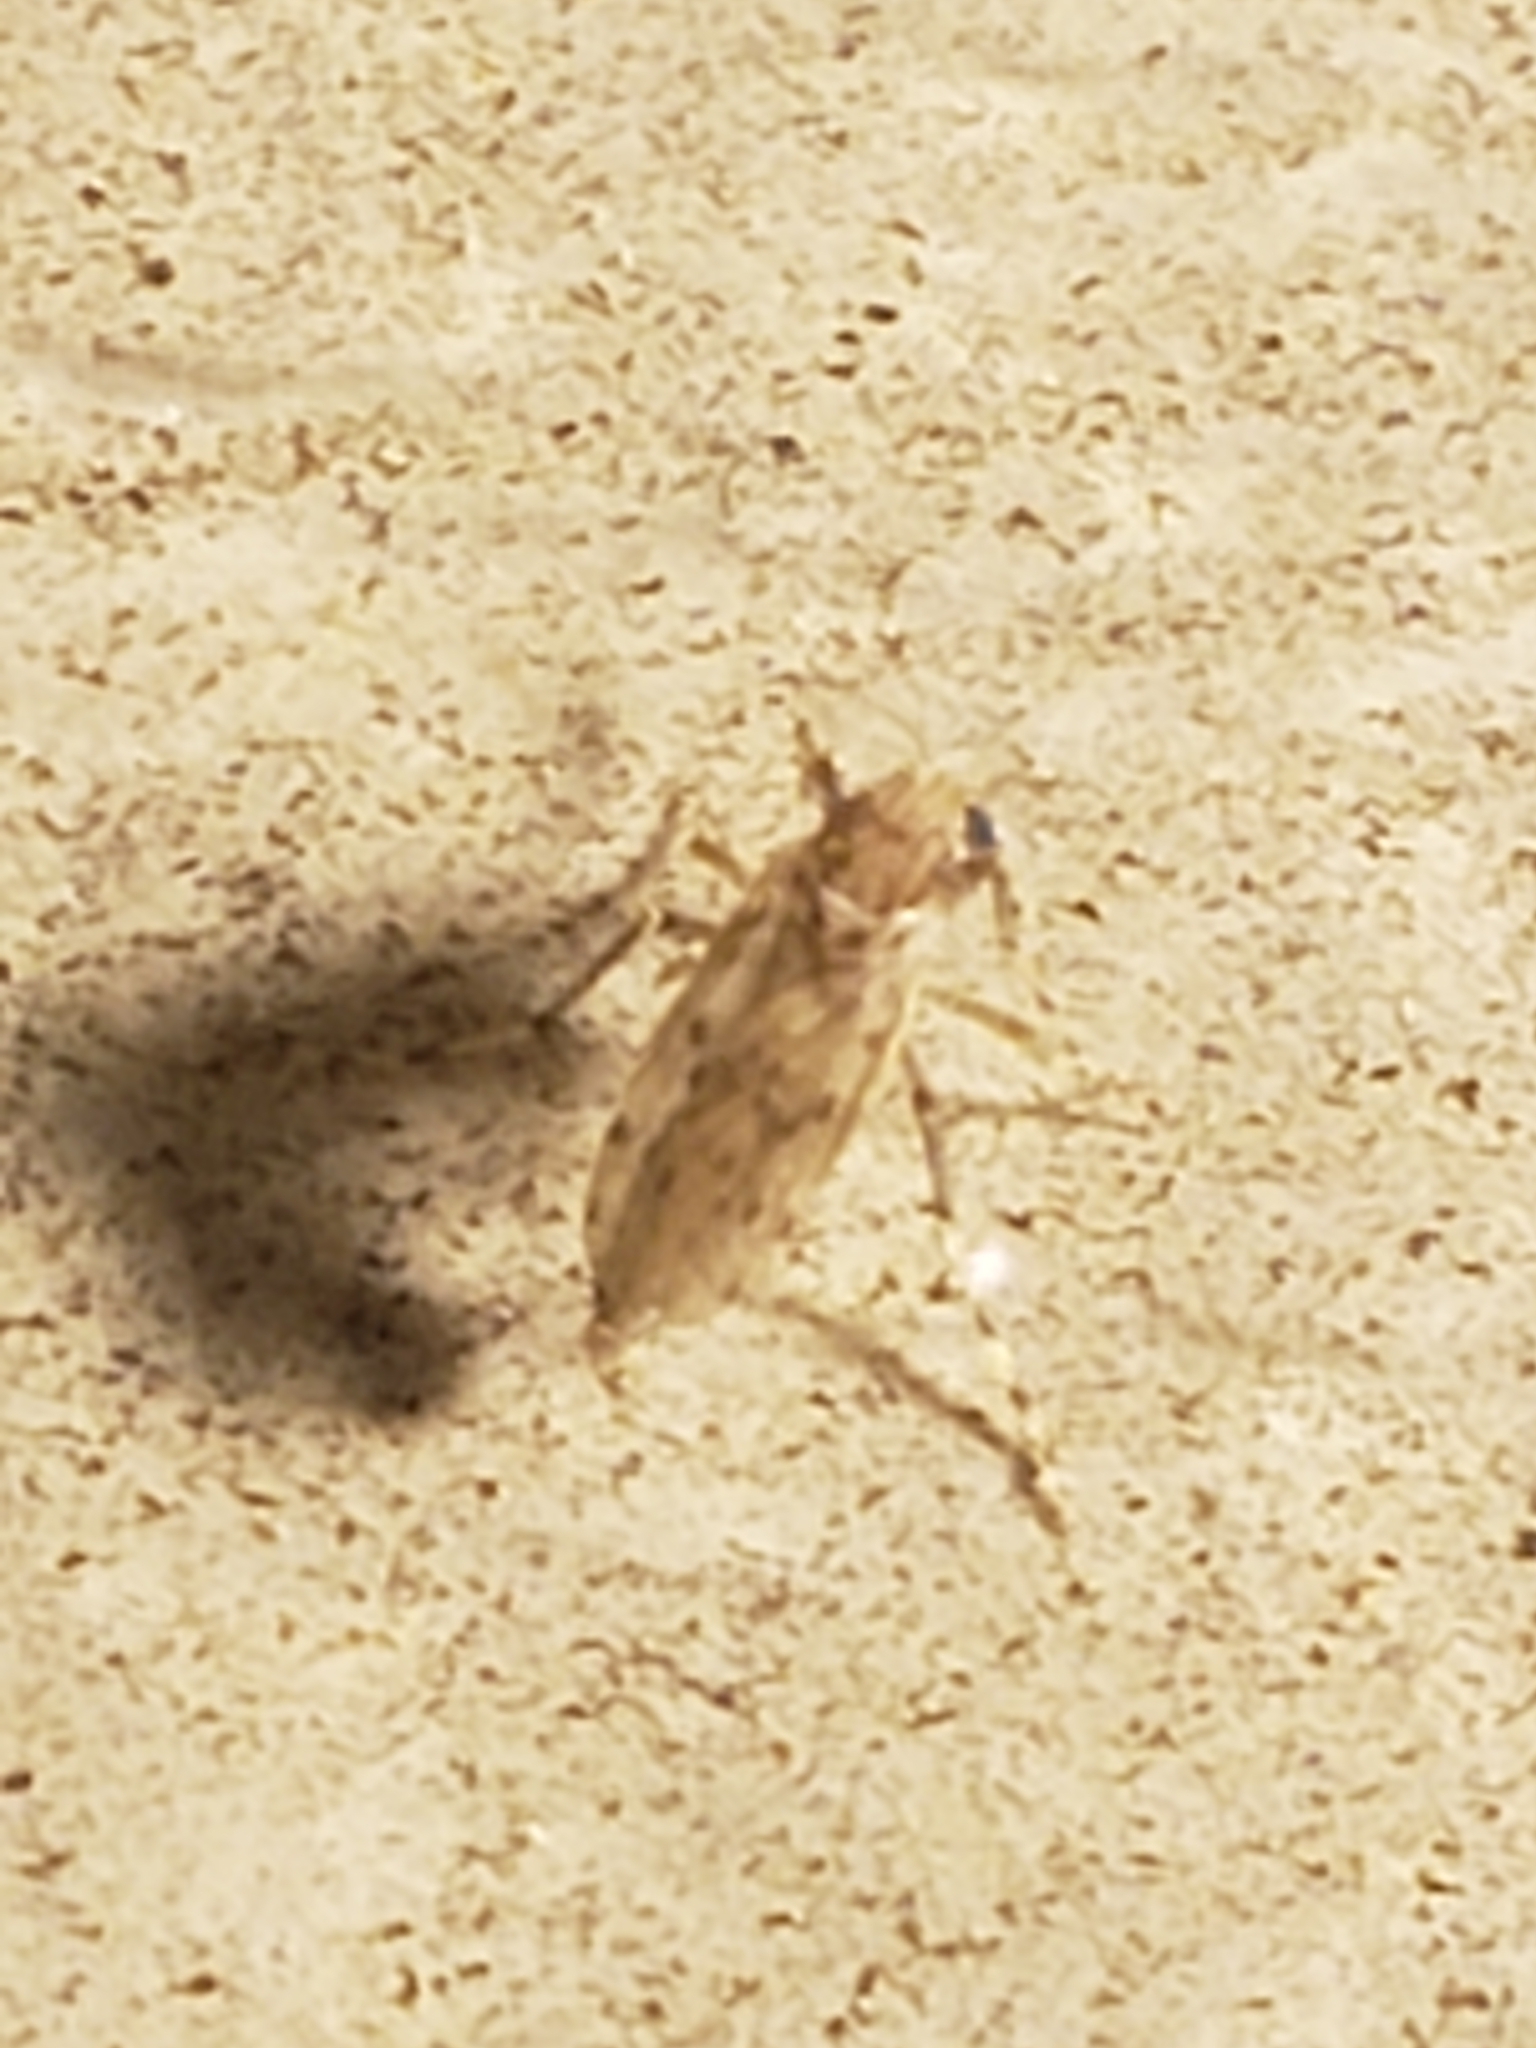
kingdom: Animalia
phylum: Arthropoda
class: Insecta
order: Diptera
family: Chaoboridae
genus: Chaoborus
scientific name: Chaoborus punctipennis
